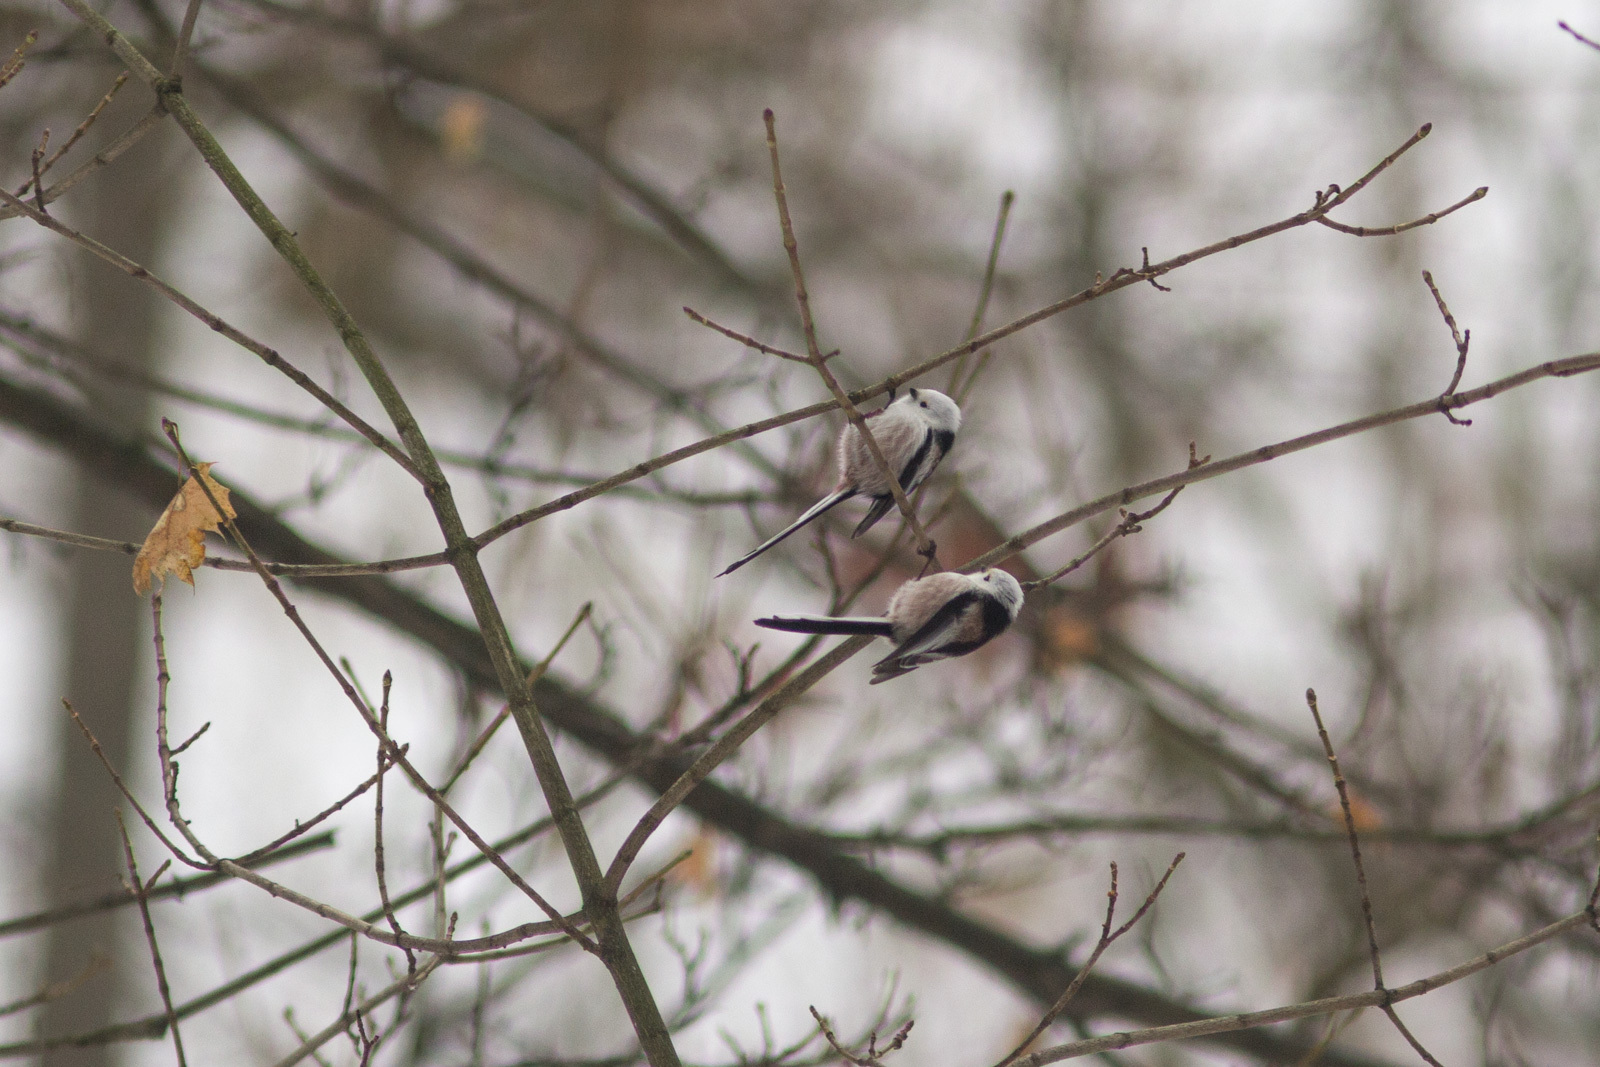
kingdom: Animalia
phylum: Chordata
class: Aves
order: Passeriformes
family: Aegithalidae
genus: Aegithalos
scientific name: Aegithalos caudatus
